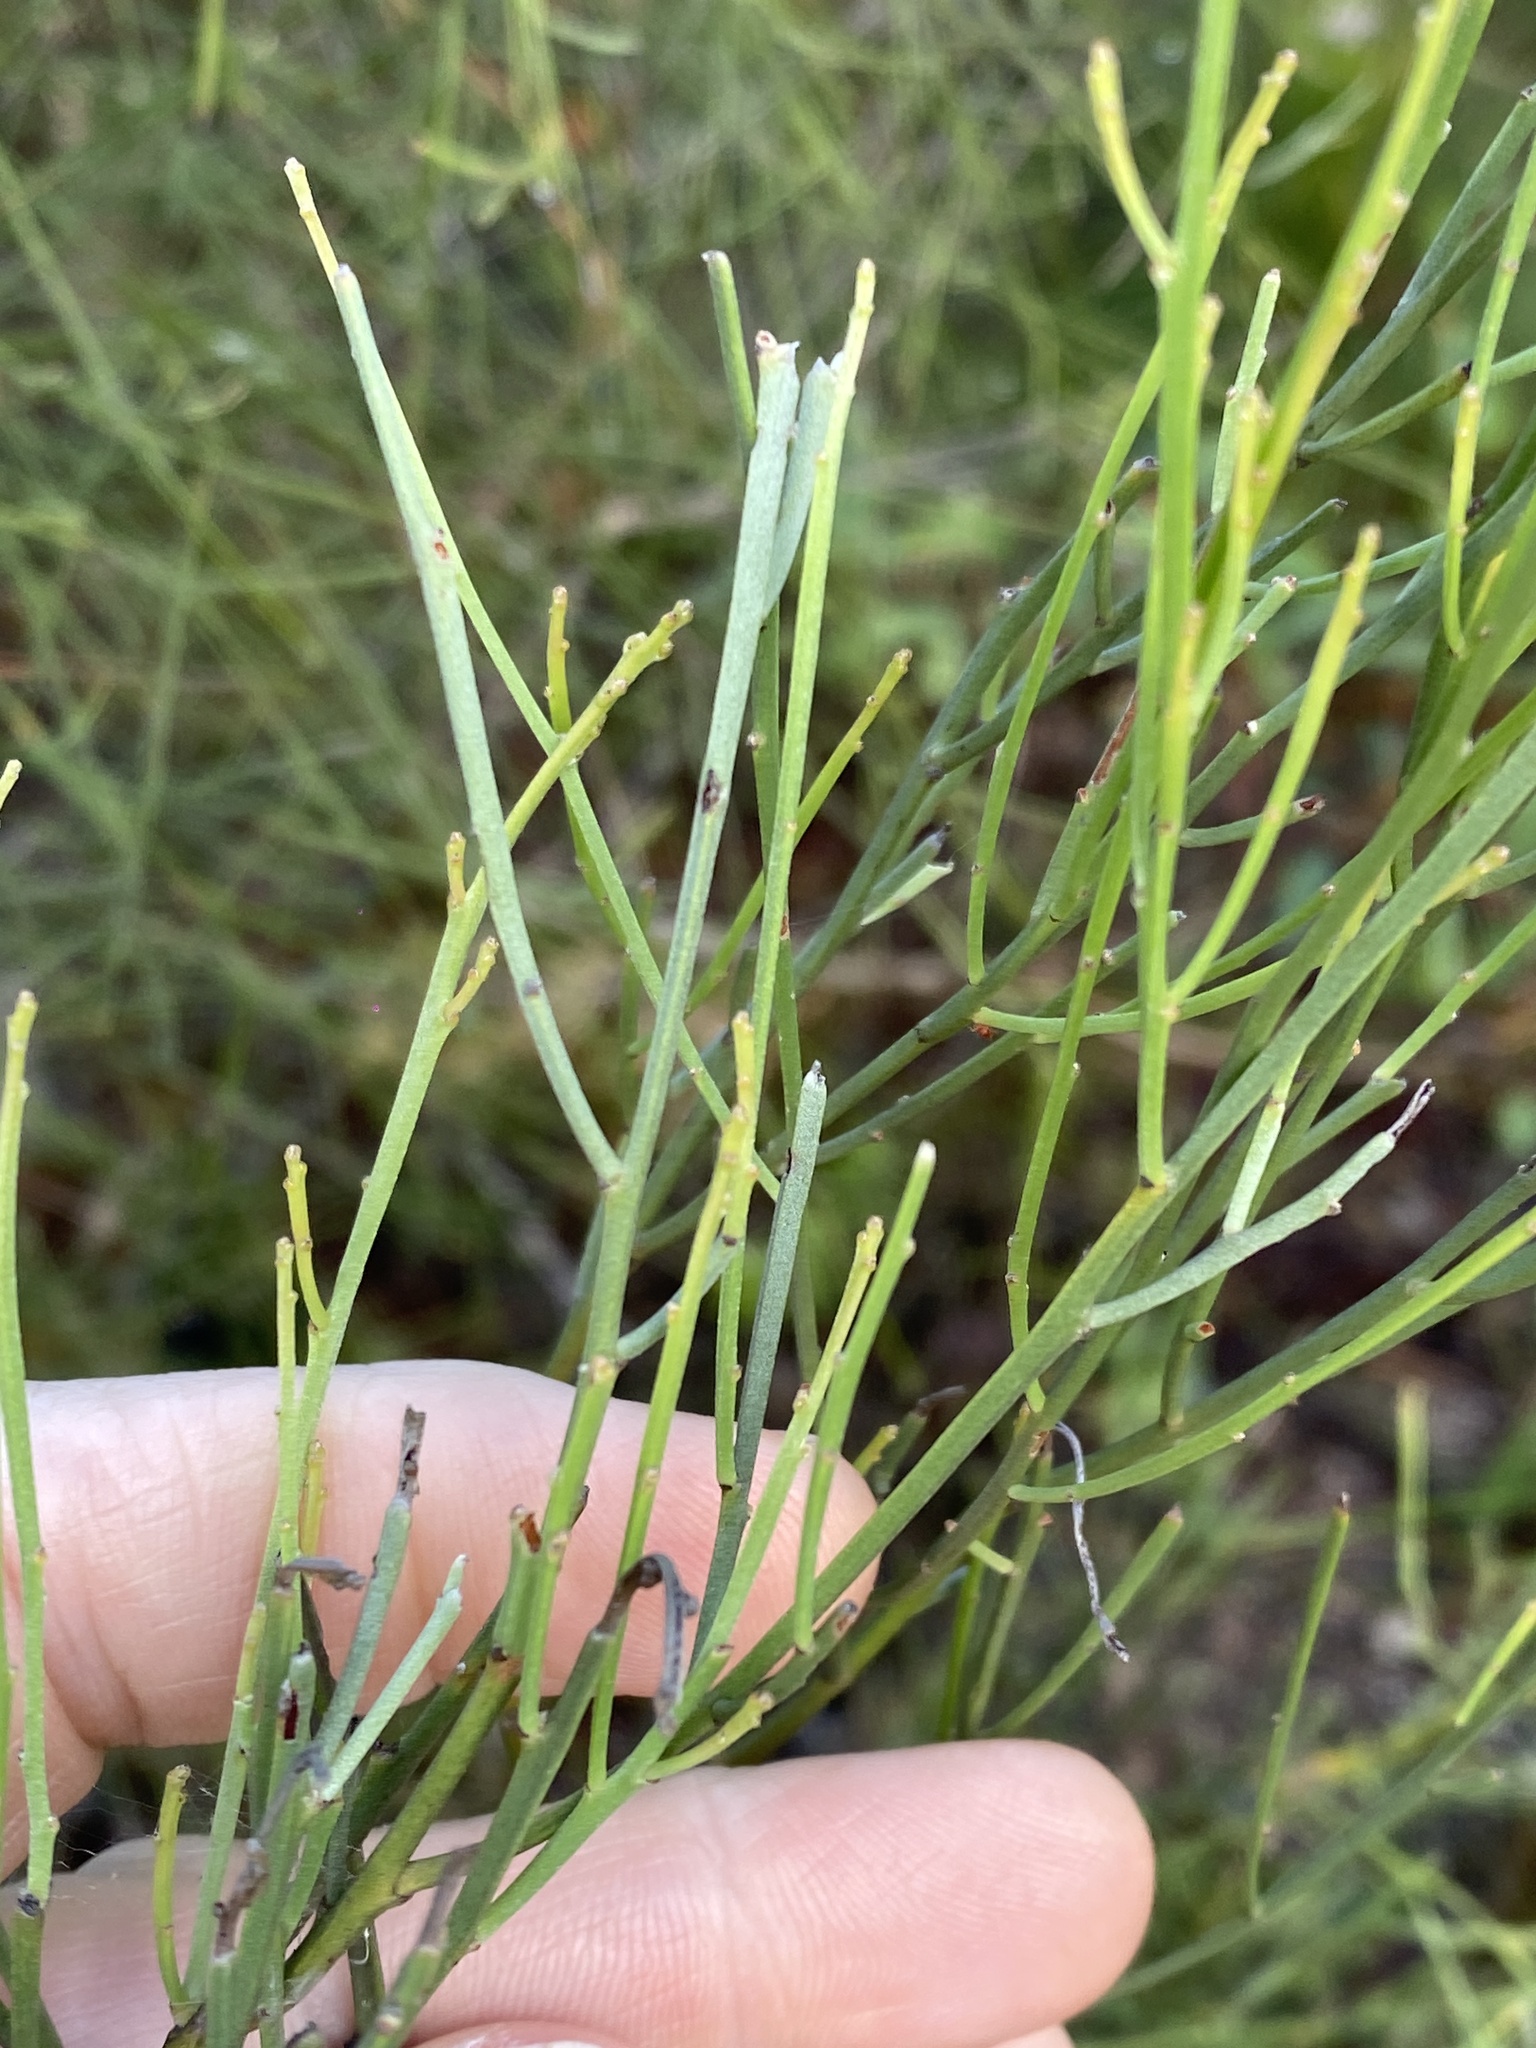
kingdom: Plantae
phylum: Tracheophyta
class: Magnoliopsida
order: Fabales
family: Fabaceae
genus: Jacksonia
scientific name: Jacksonia scoparia
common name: Dogwood
